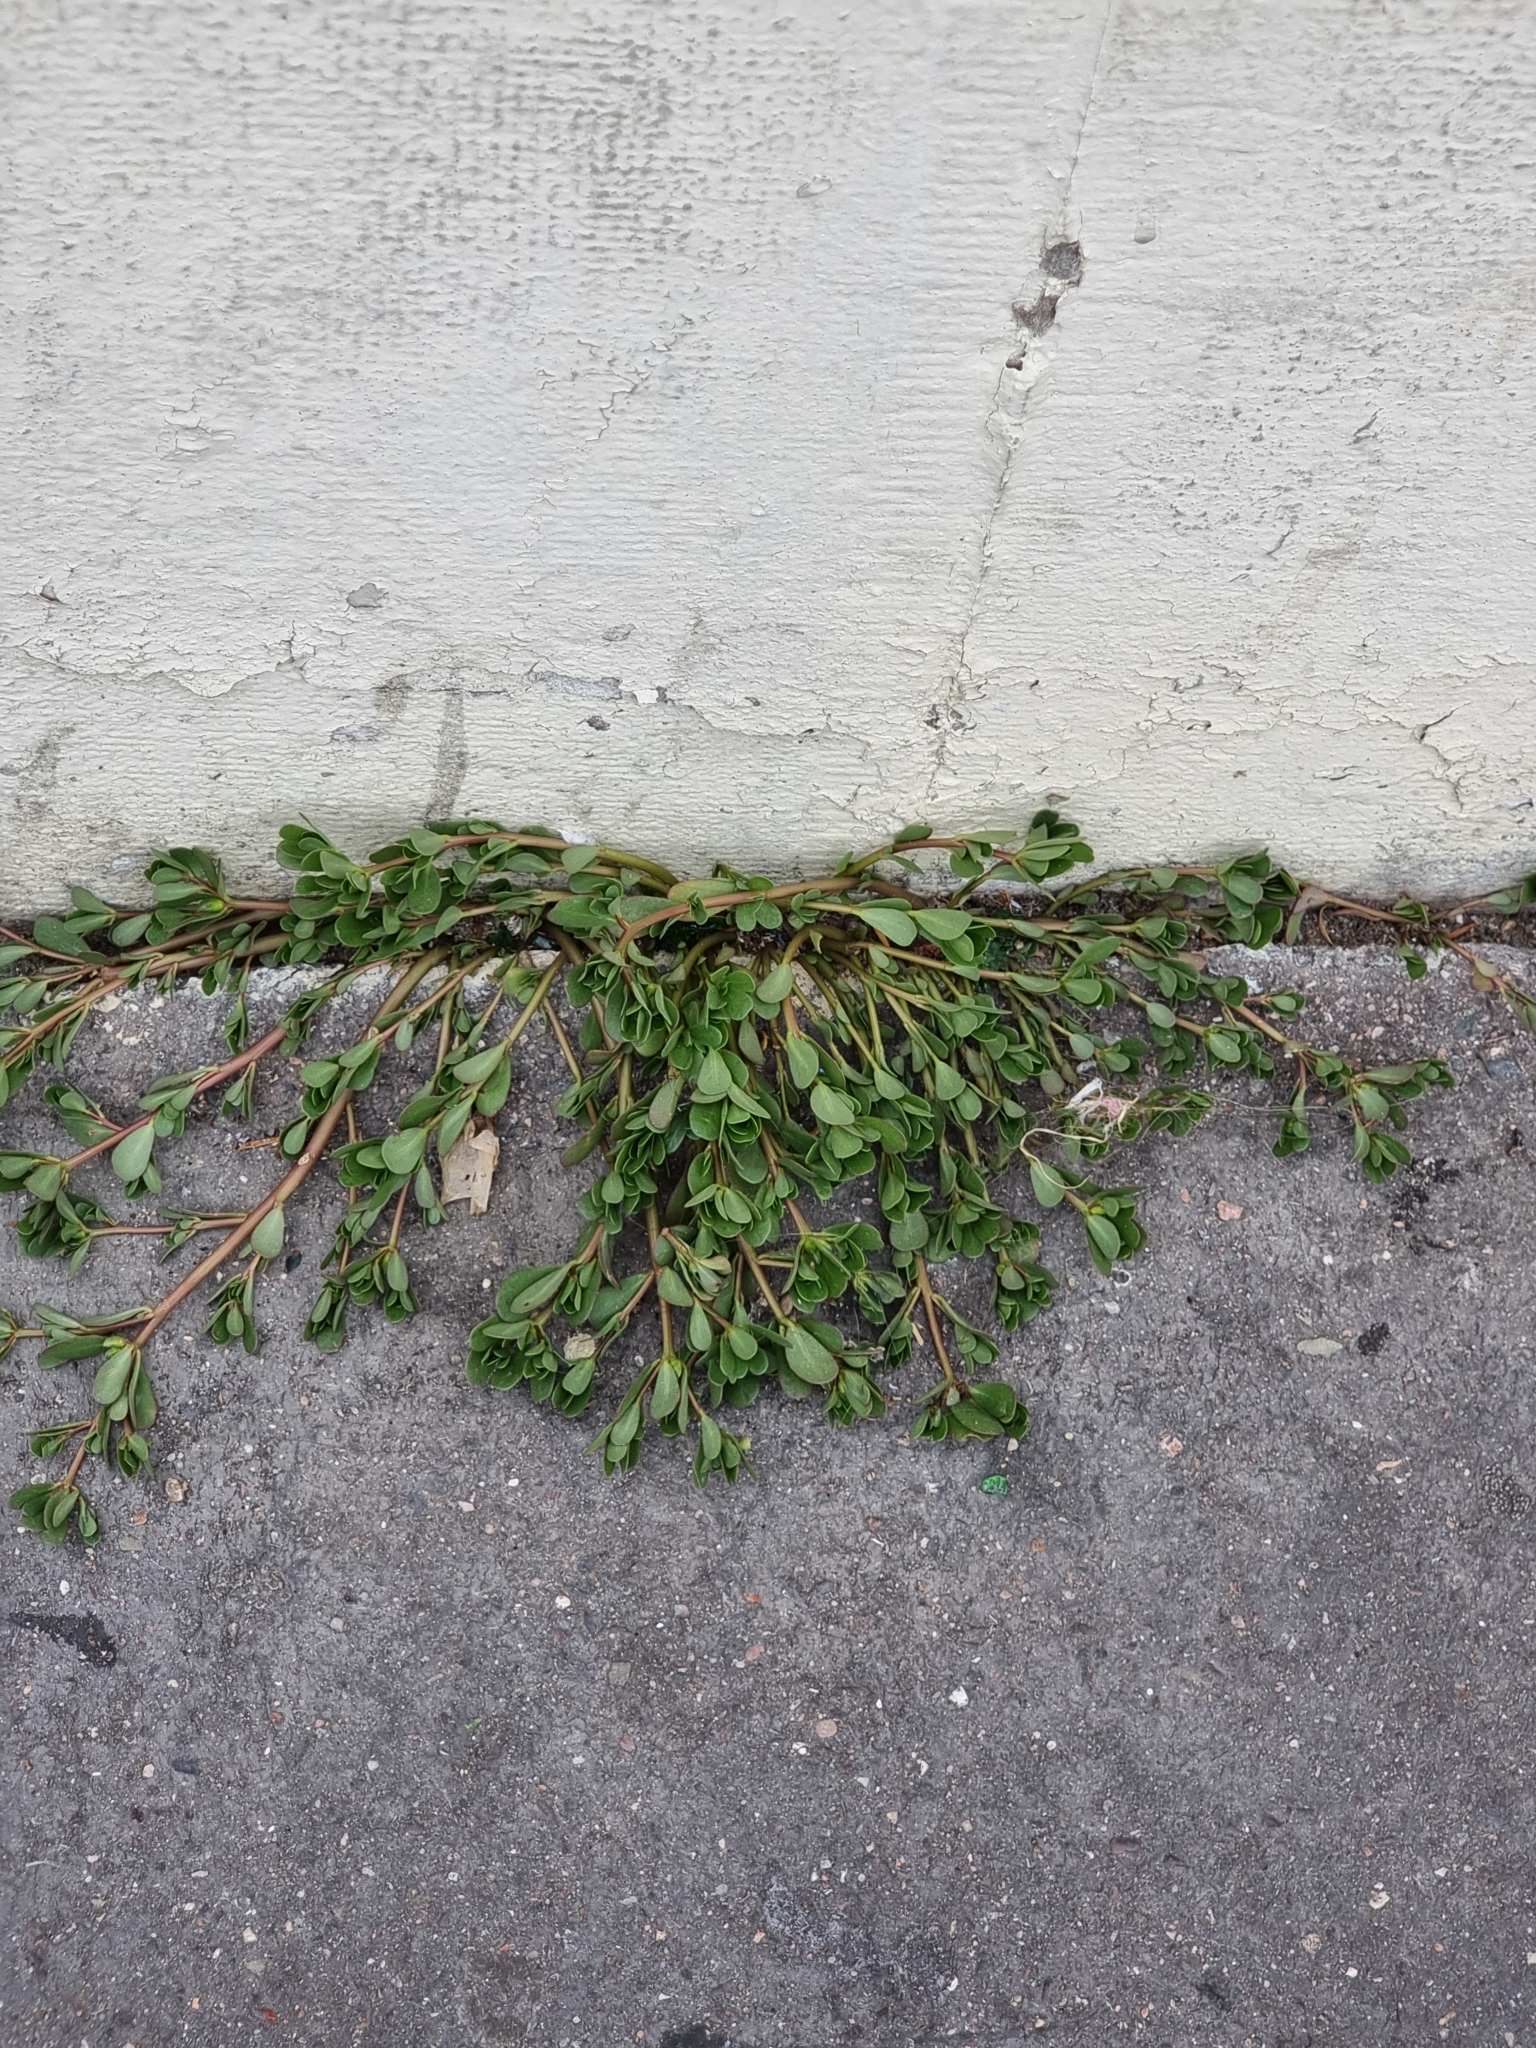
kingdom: Plantae
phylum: Tracheophyta
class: Magnoliopsida
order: Caryophyllales
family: Portulacaceae
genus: Portulaca
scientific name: Portulaca oleracea
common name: Common purslane
